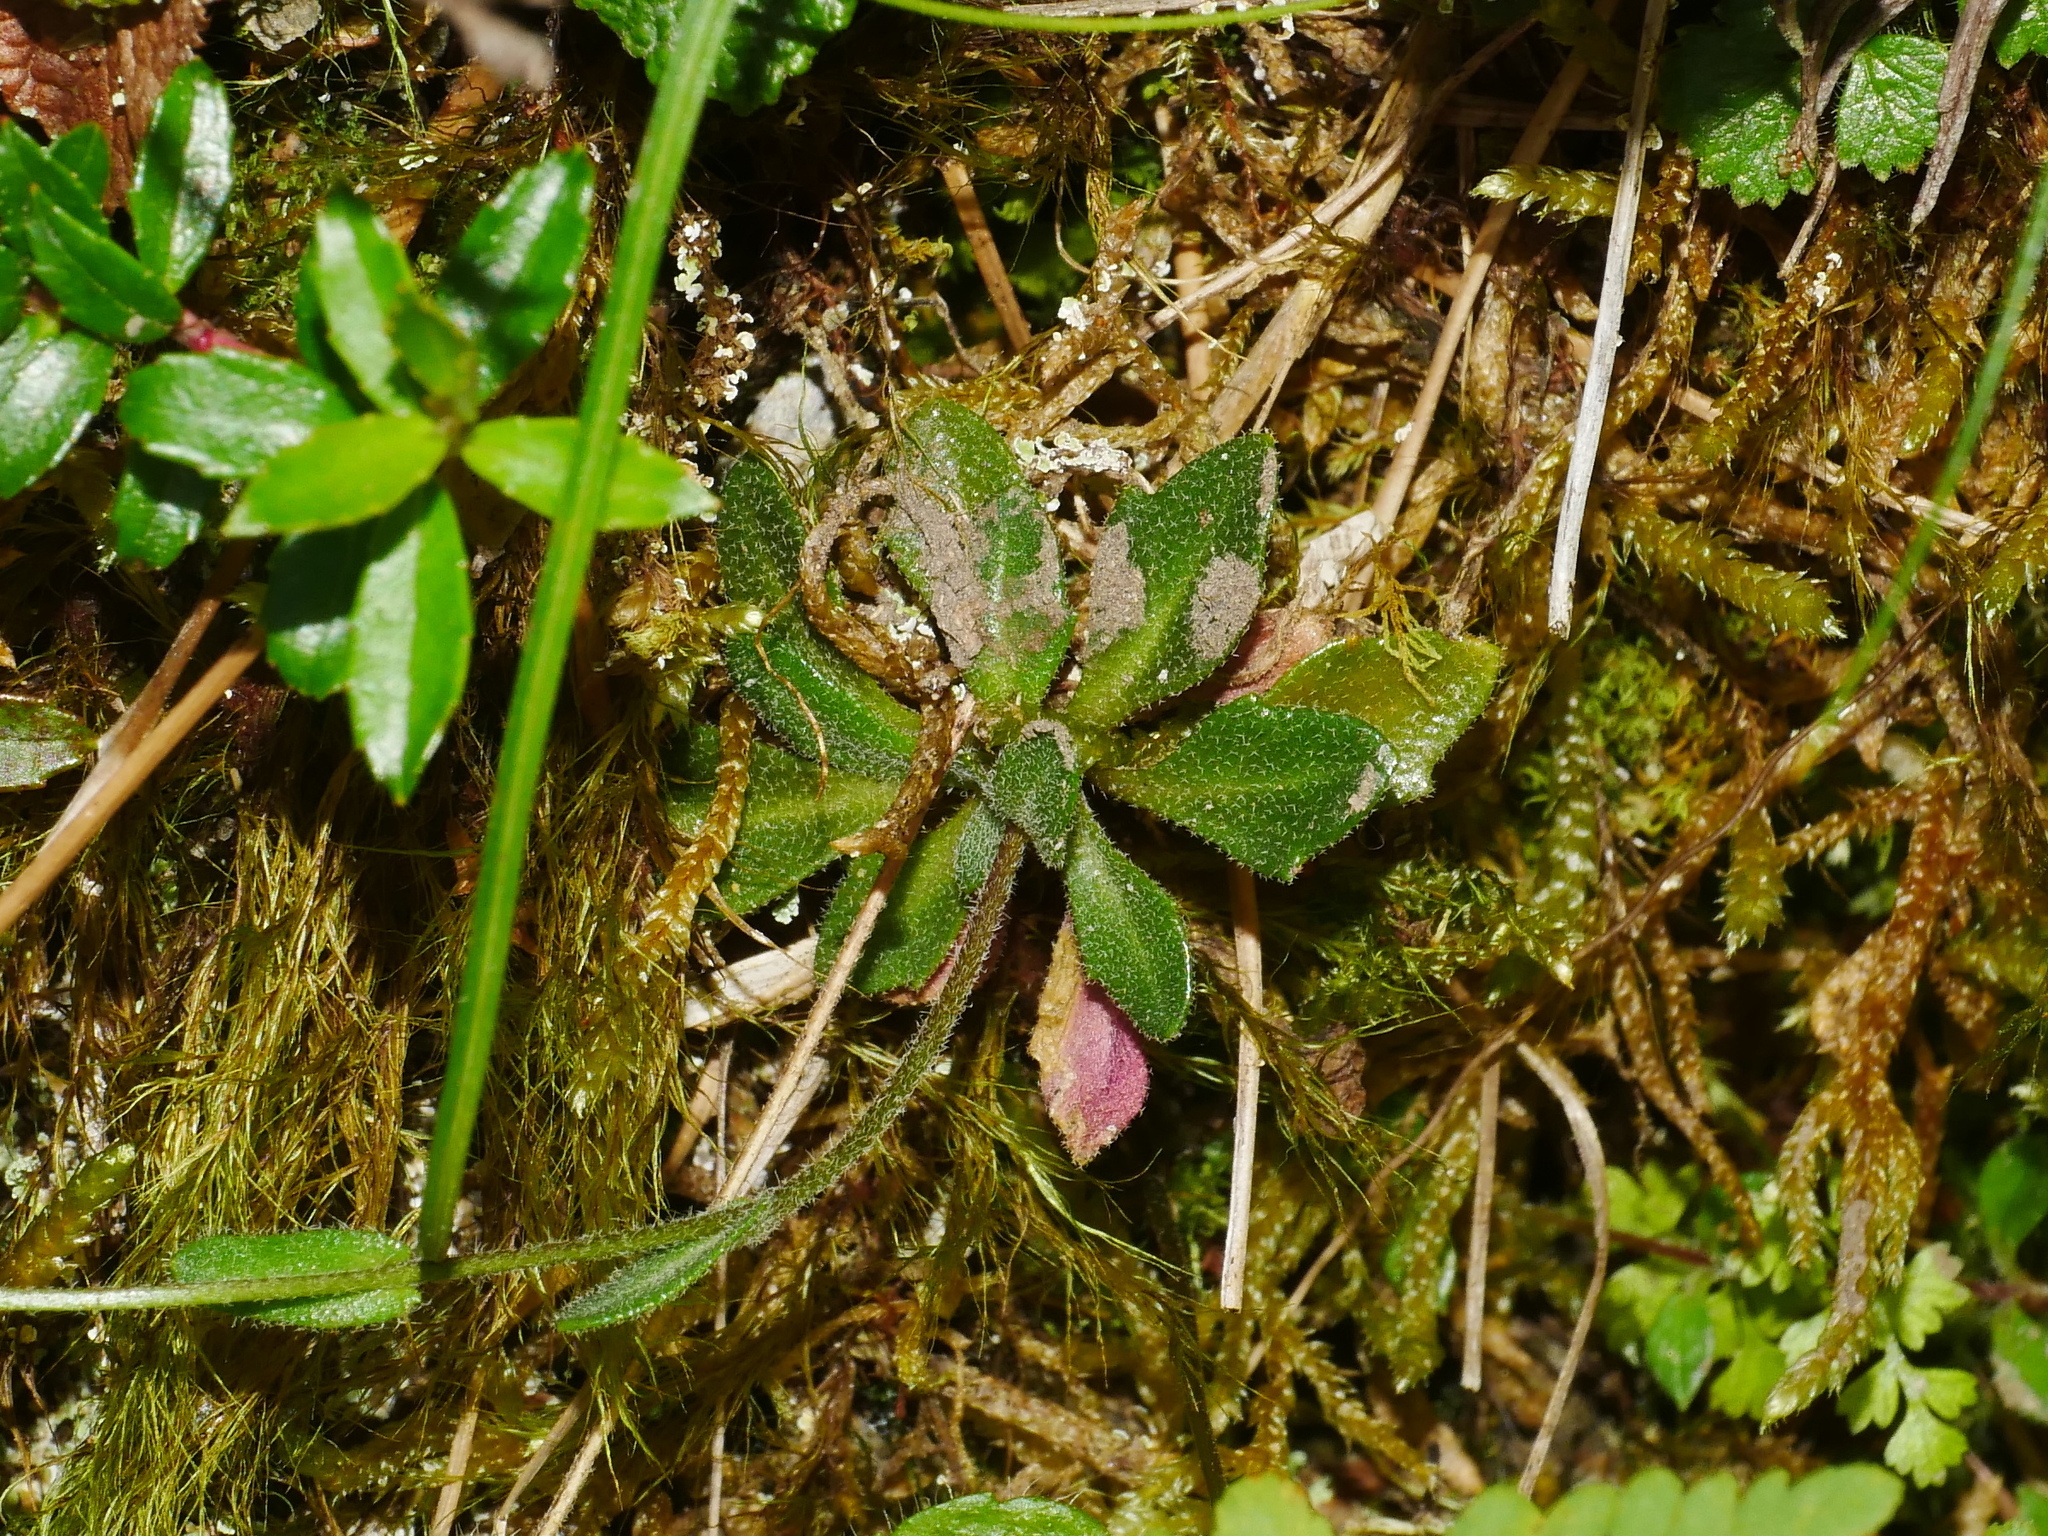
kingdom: Plantae
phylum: Tracheophyta
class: Magnoliopsida
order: Brassicales
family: Brassicaceae
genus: Arabis
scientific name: Arabis serrata
